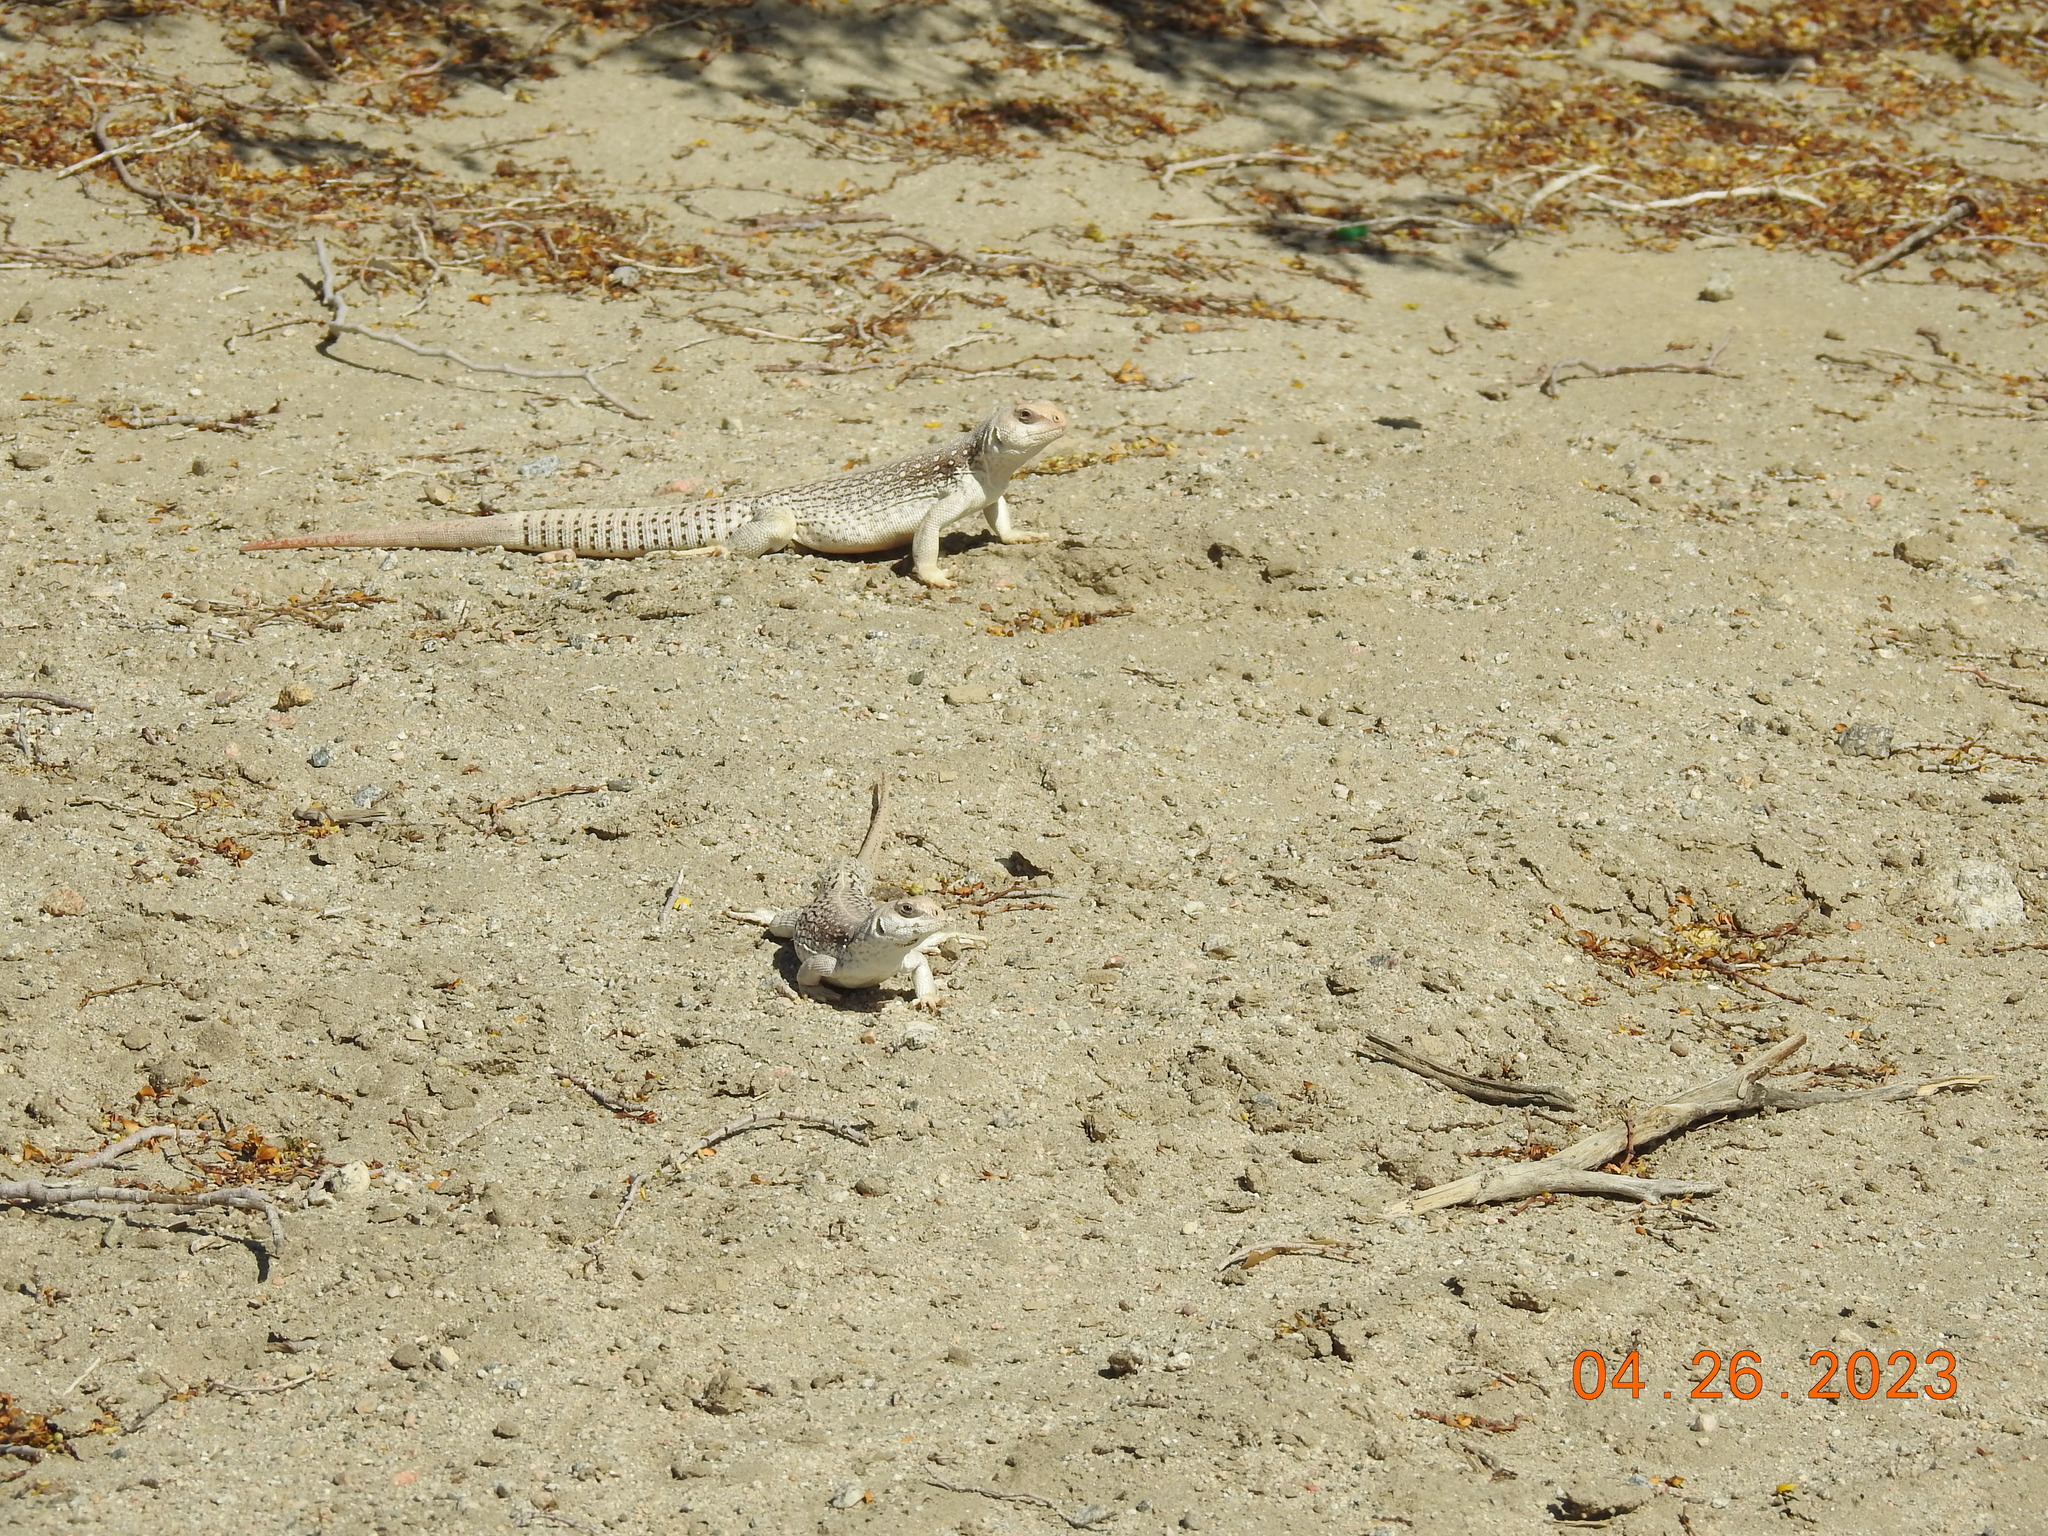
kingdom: Animalia
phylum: Chordata
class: Squamata
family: Iguanidae
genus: Dipsosaurus
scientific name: Dipsosaurus dorsalis
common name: Desert iguana
